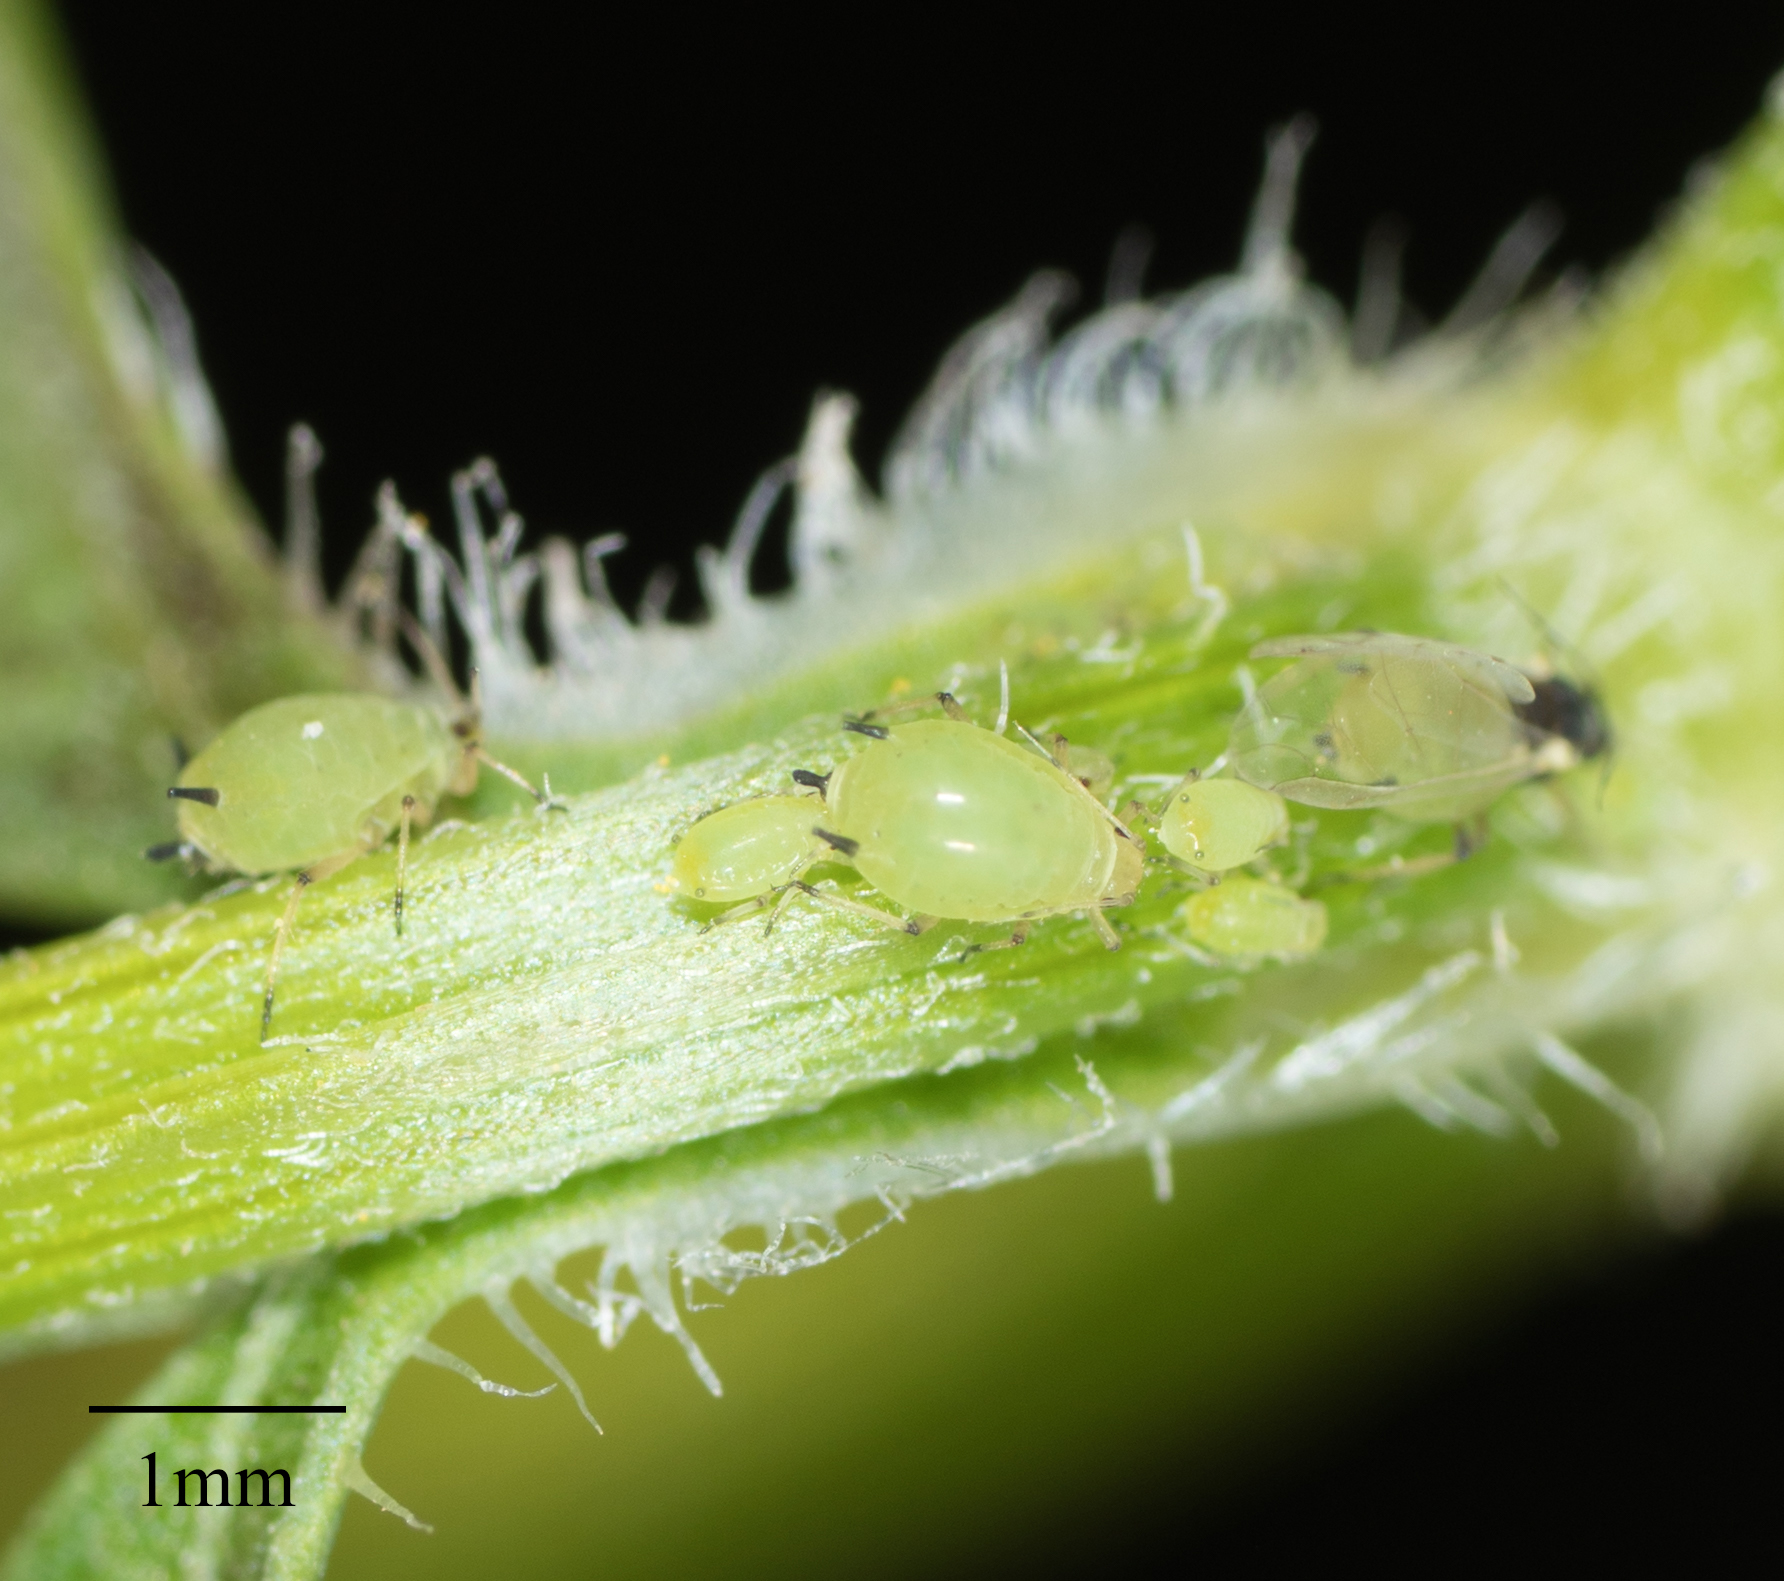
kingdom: Animalia
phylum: Arthropoda
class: Insecta
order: Hemiptera
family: Aphididae
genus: Aphis
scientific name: Aphis spiraecola
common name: Spirea aphid
